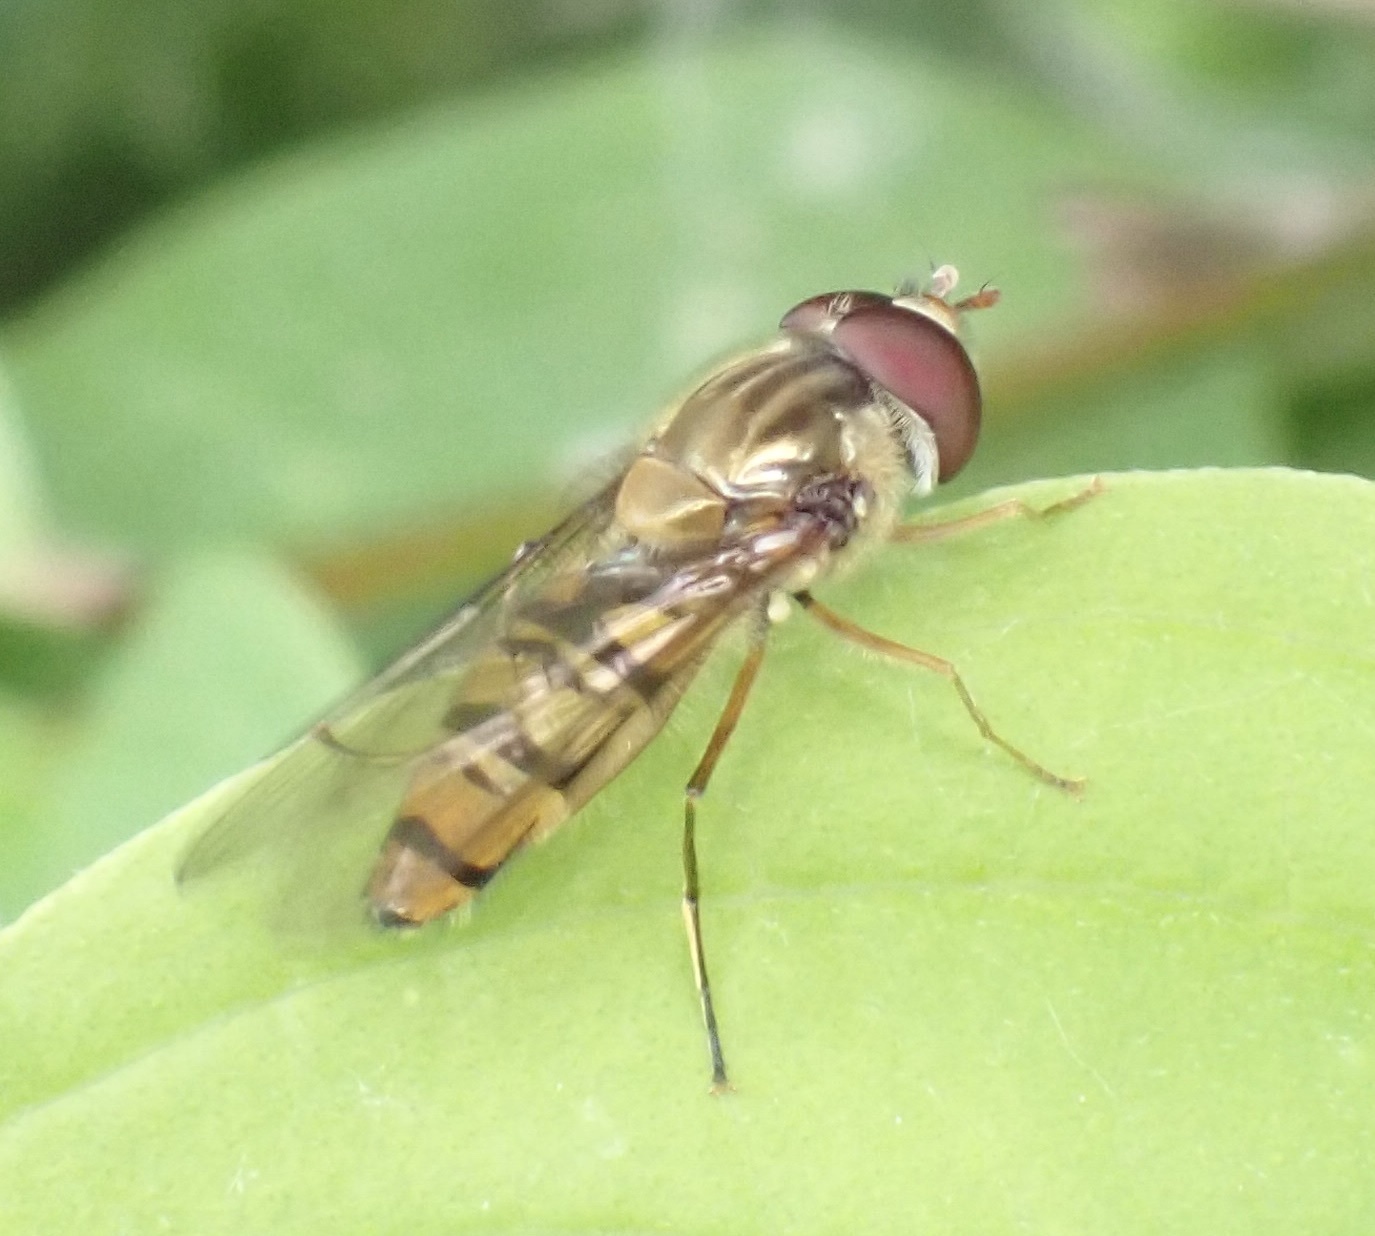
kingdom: Animalia
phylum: Arthropoda
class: Insecta
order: Diptera
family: Syrphidae
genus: Episyrphus
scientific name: Episyrphus balteatus
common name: Marmalade hoverfly
